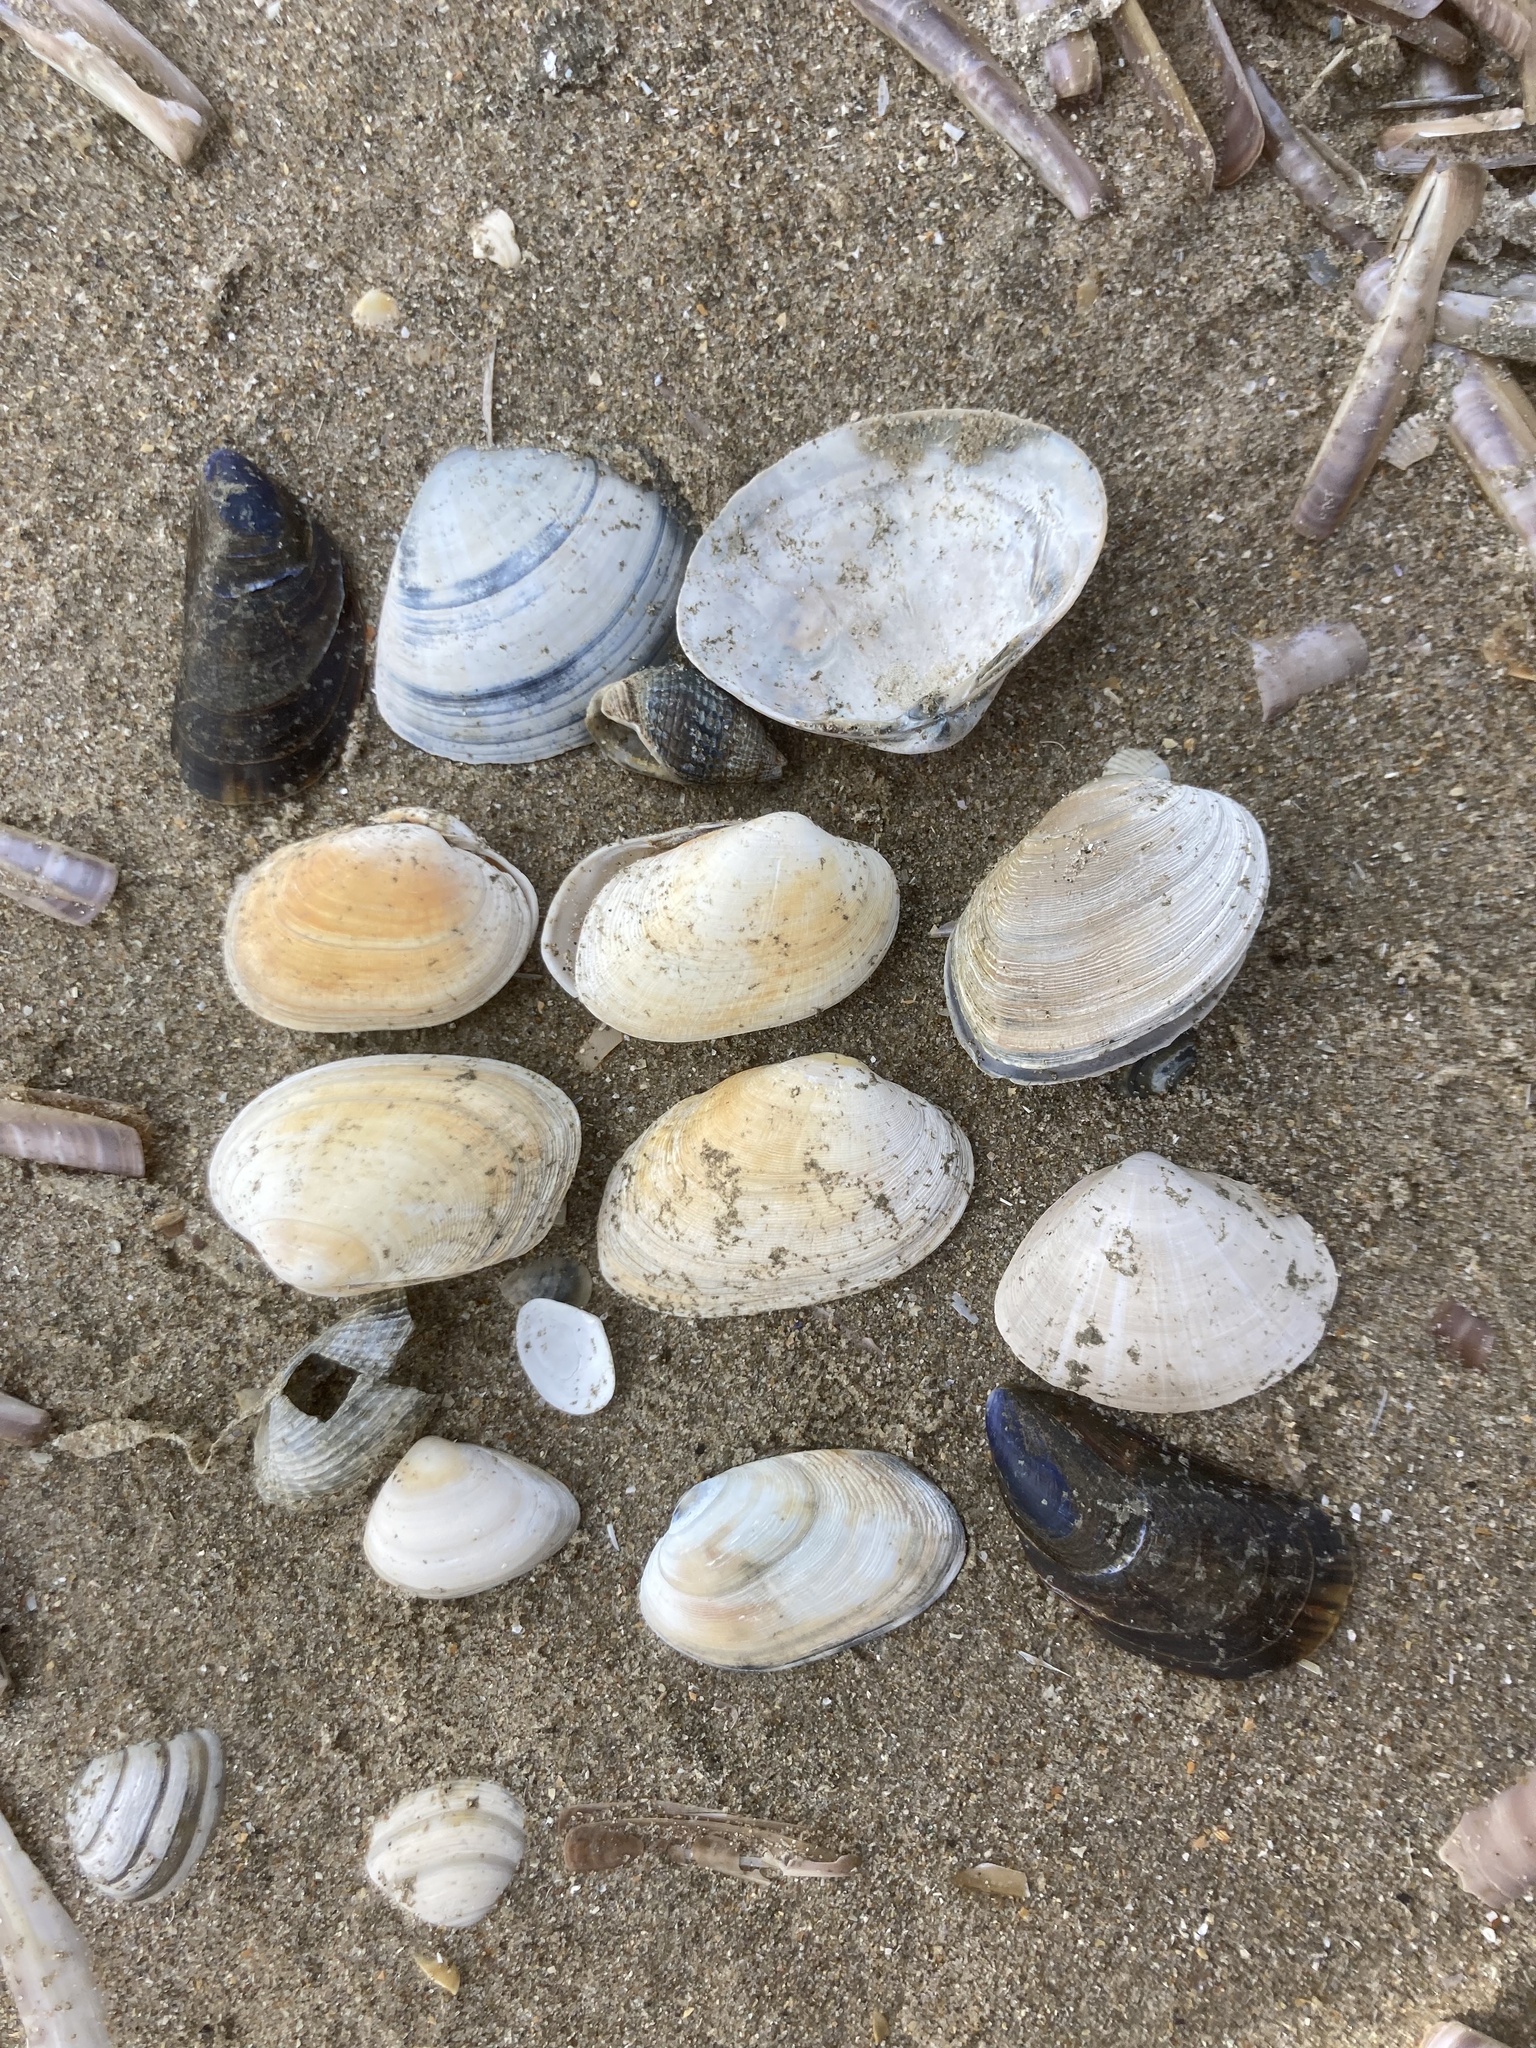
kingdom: Animalia
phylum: Mollusca
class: Bivalvia
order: Venerida
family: Veneridae
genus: Venerupis
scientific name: Venerupis corrugata
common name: Pullet carpet shell
